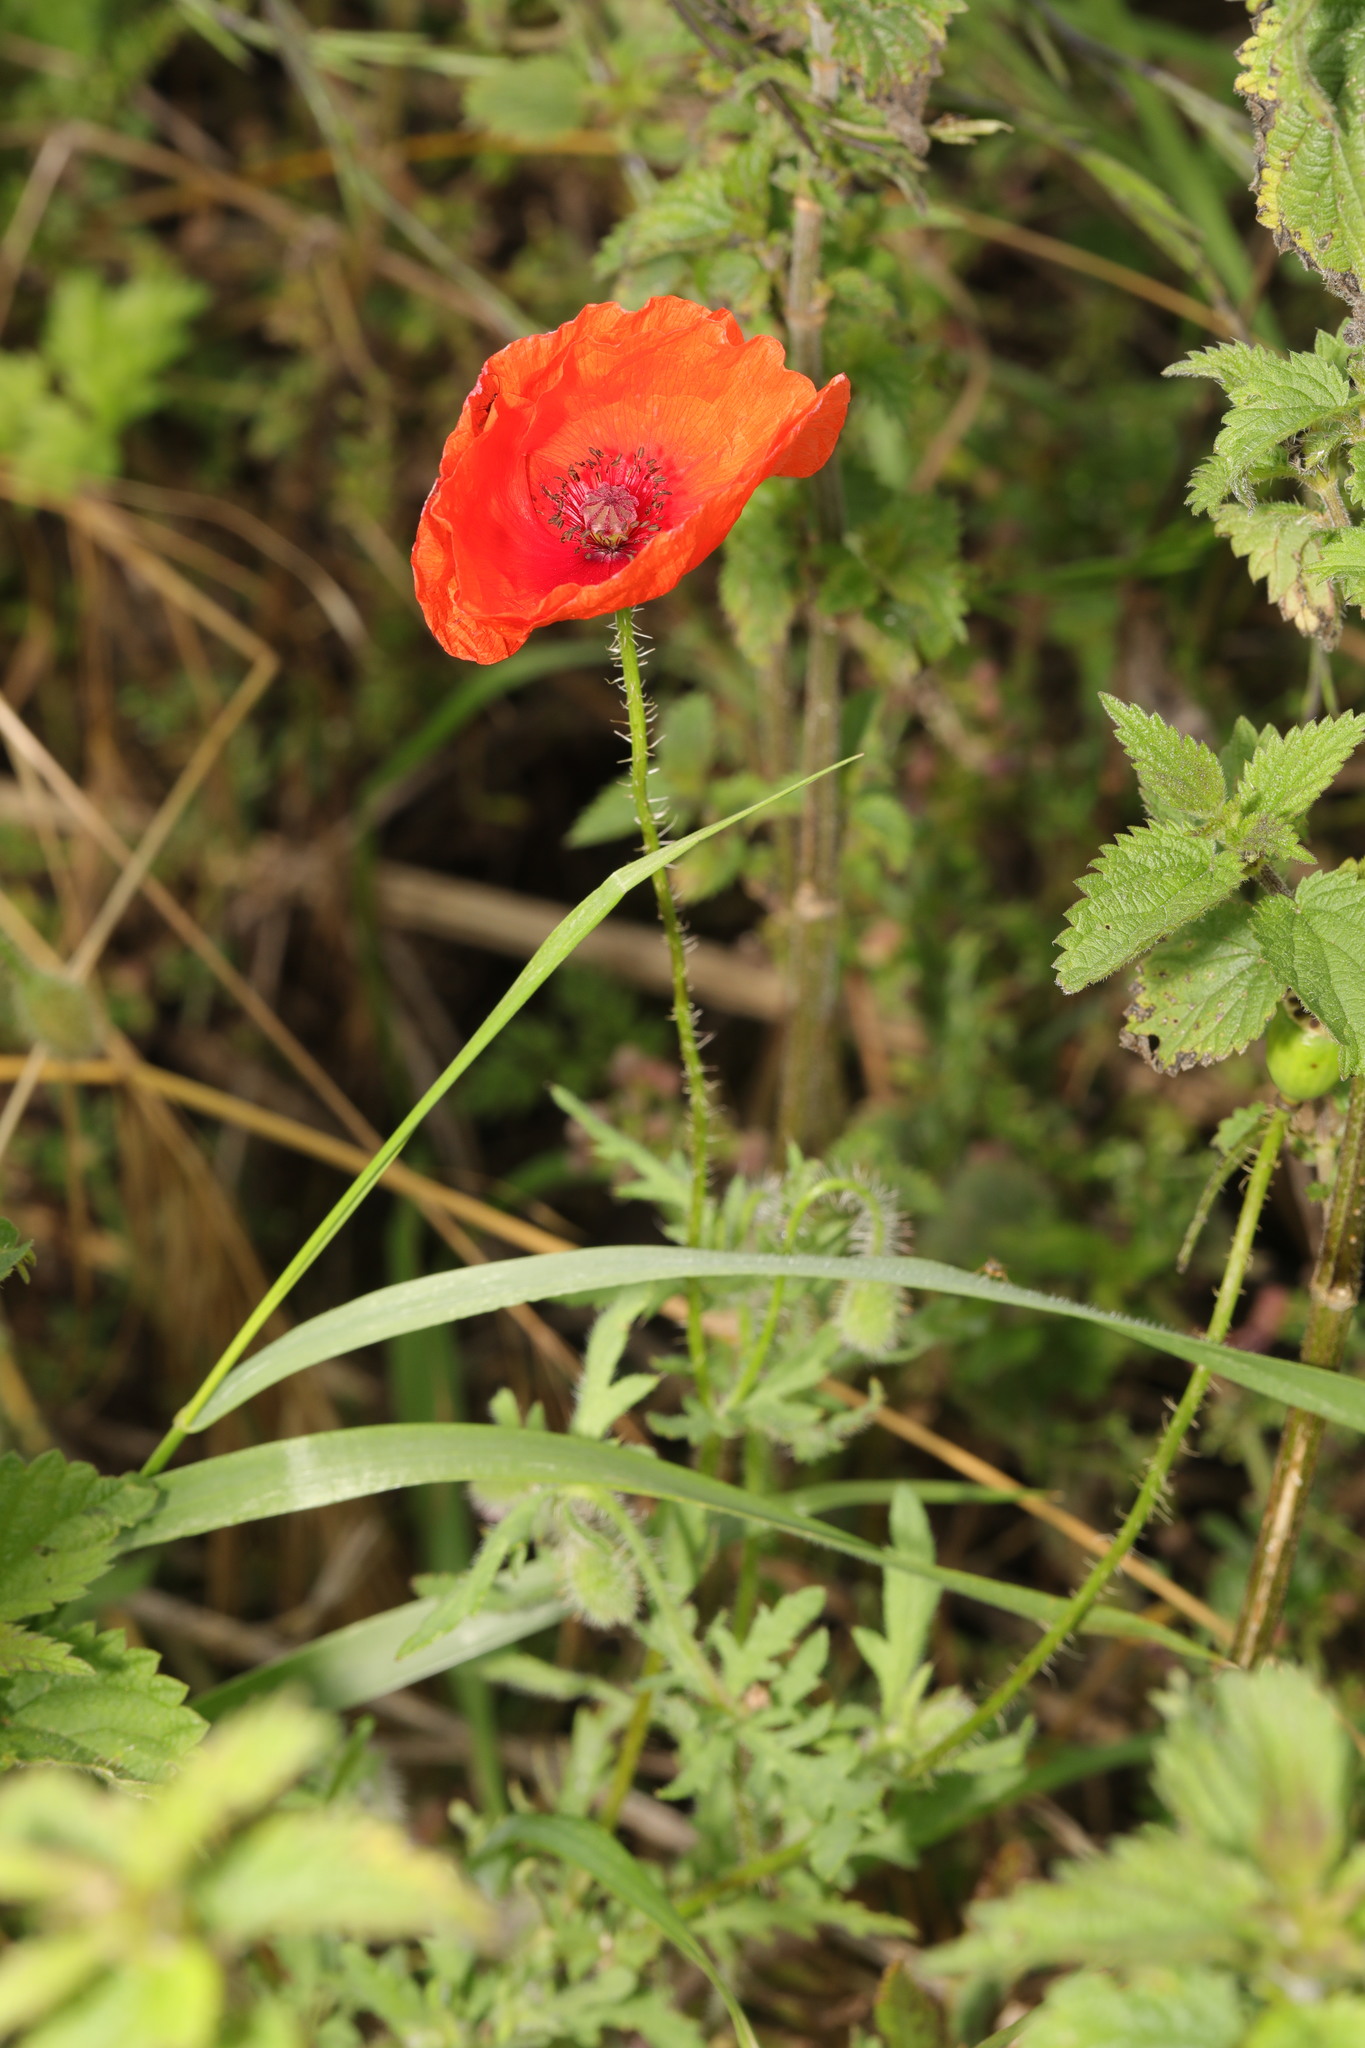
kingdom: Plantae
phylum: Tracheophyta
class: Magnoliopsida
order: Ranunculales
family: Papaveraceae
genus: Papaver
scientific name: Papaver rhoeas
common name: Corn poppy
